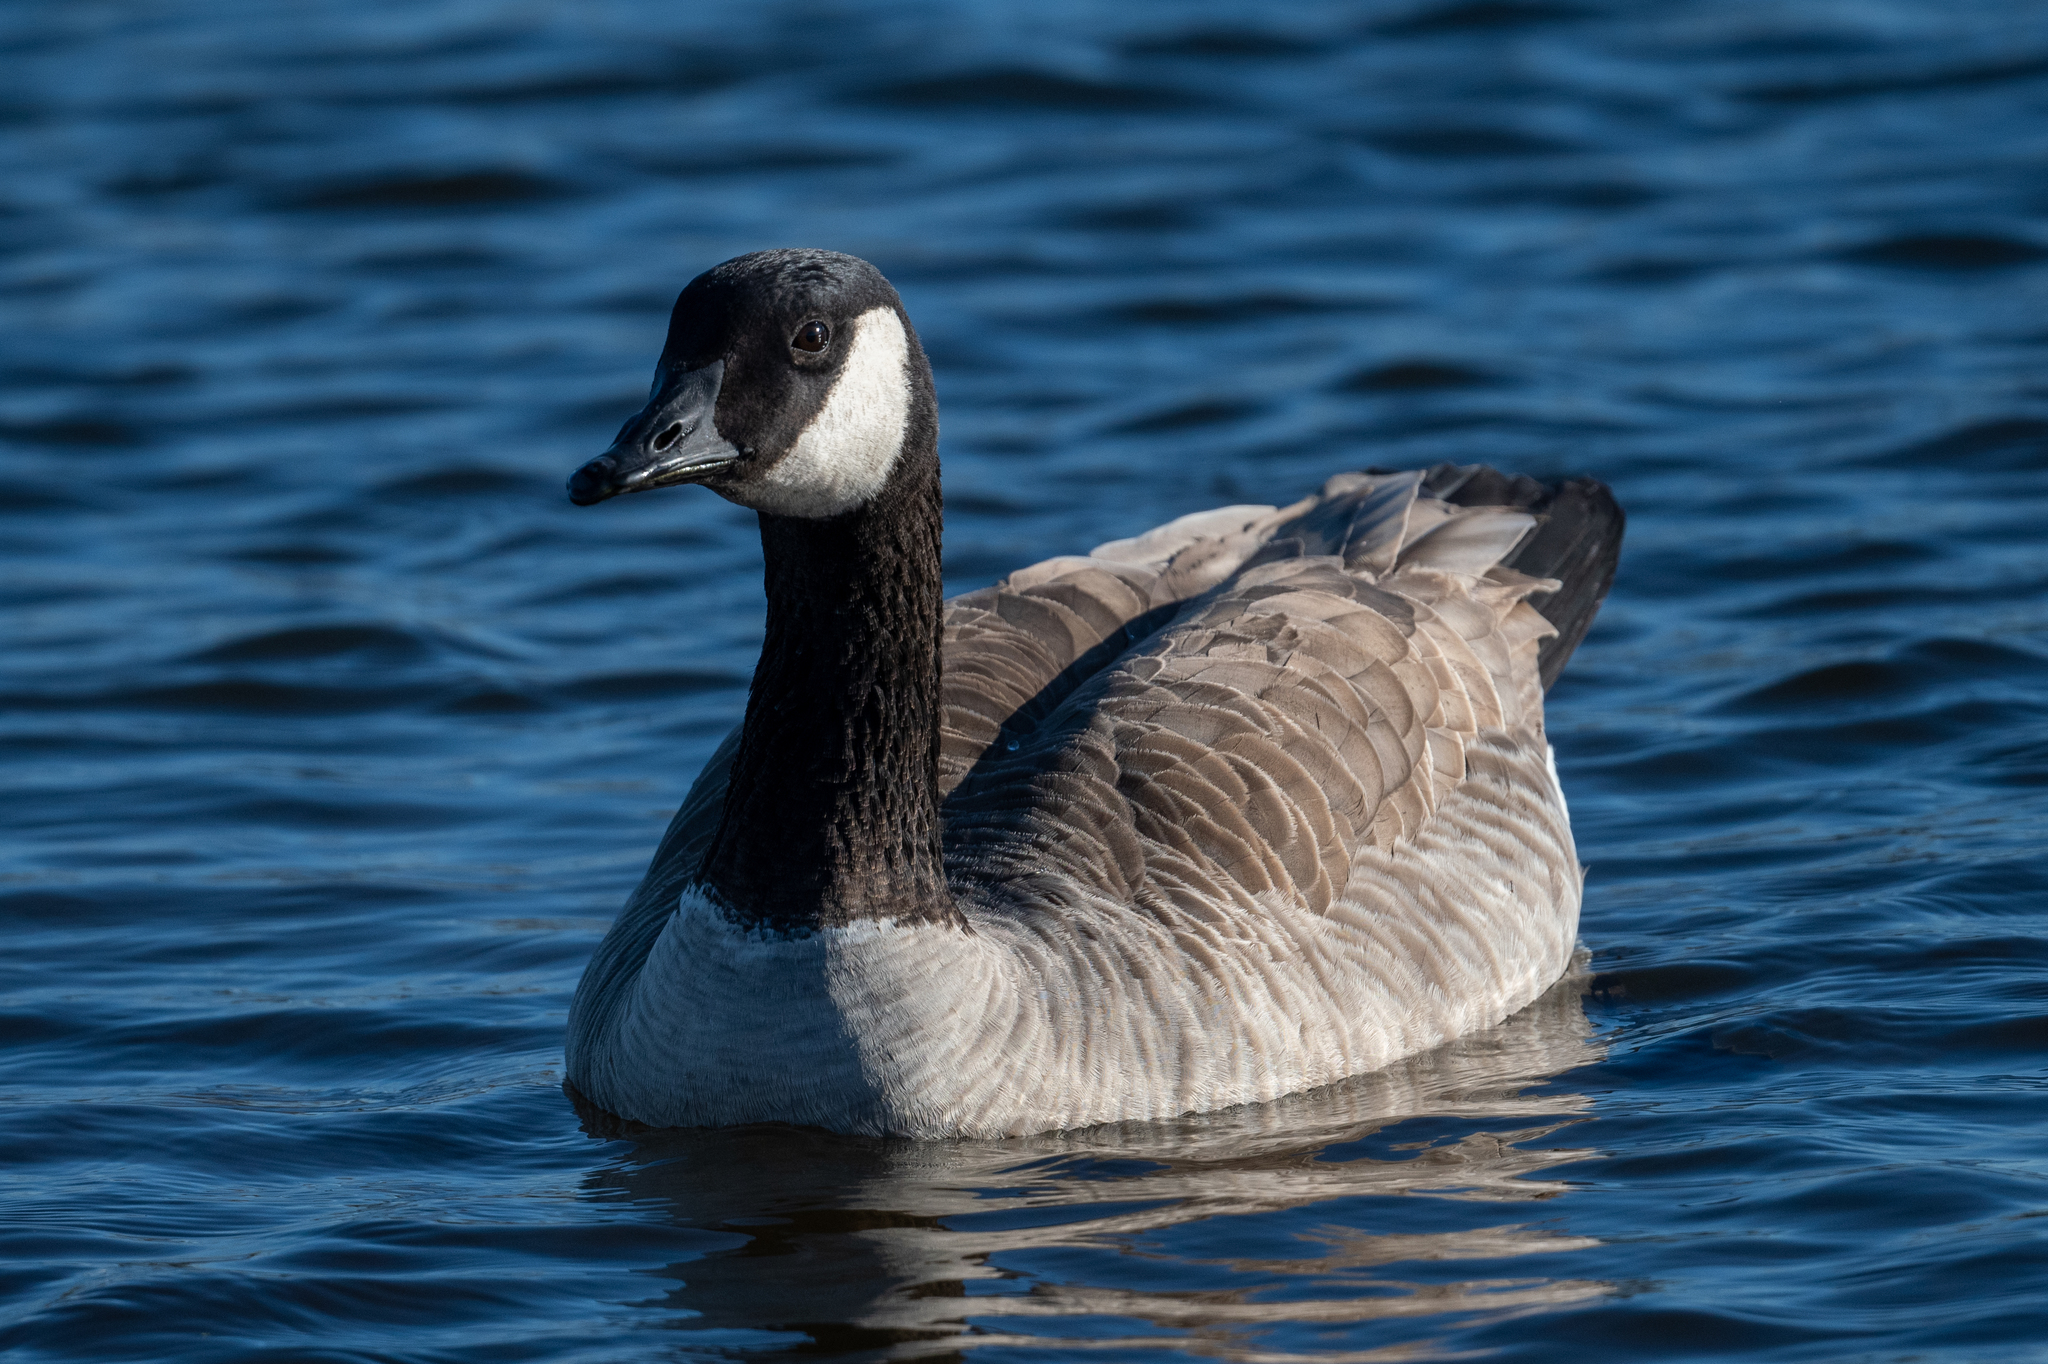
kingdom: Animalia
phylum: Chordata
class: Aves
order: Anseriformes
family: Anatidae
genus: Branta
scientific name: Branta hutchinsii
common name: Cackling goose
